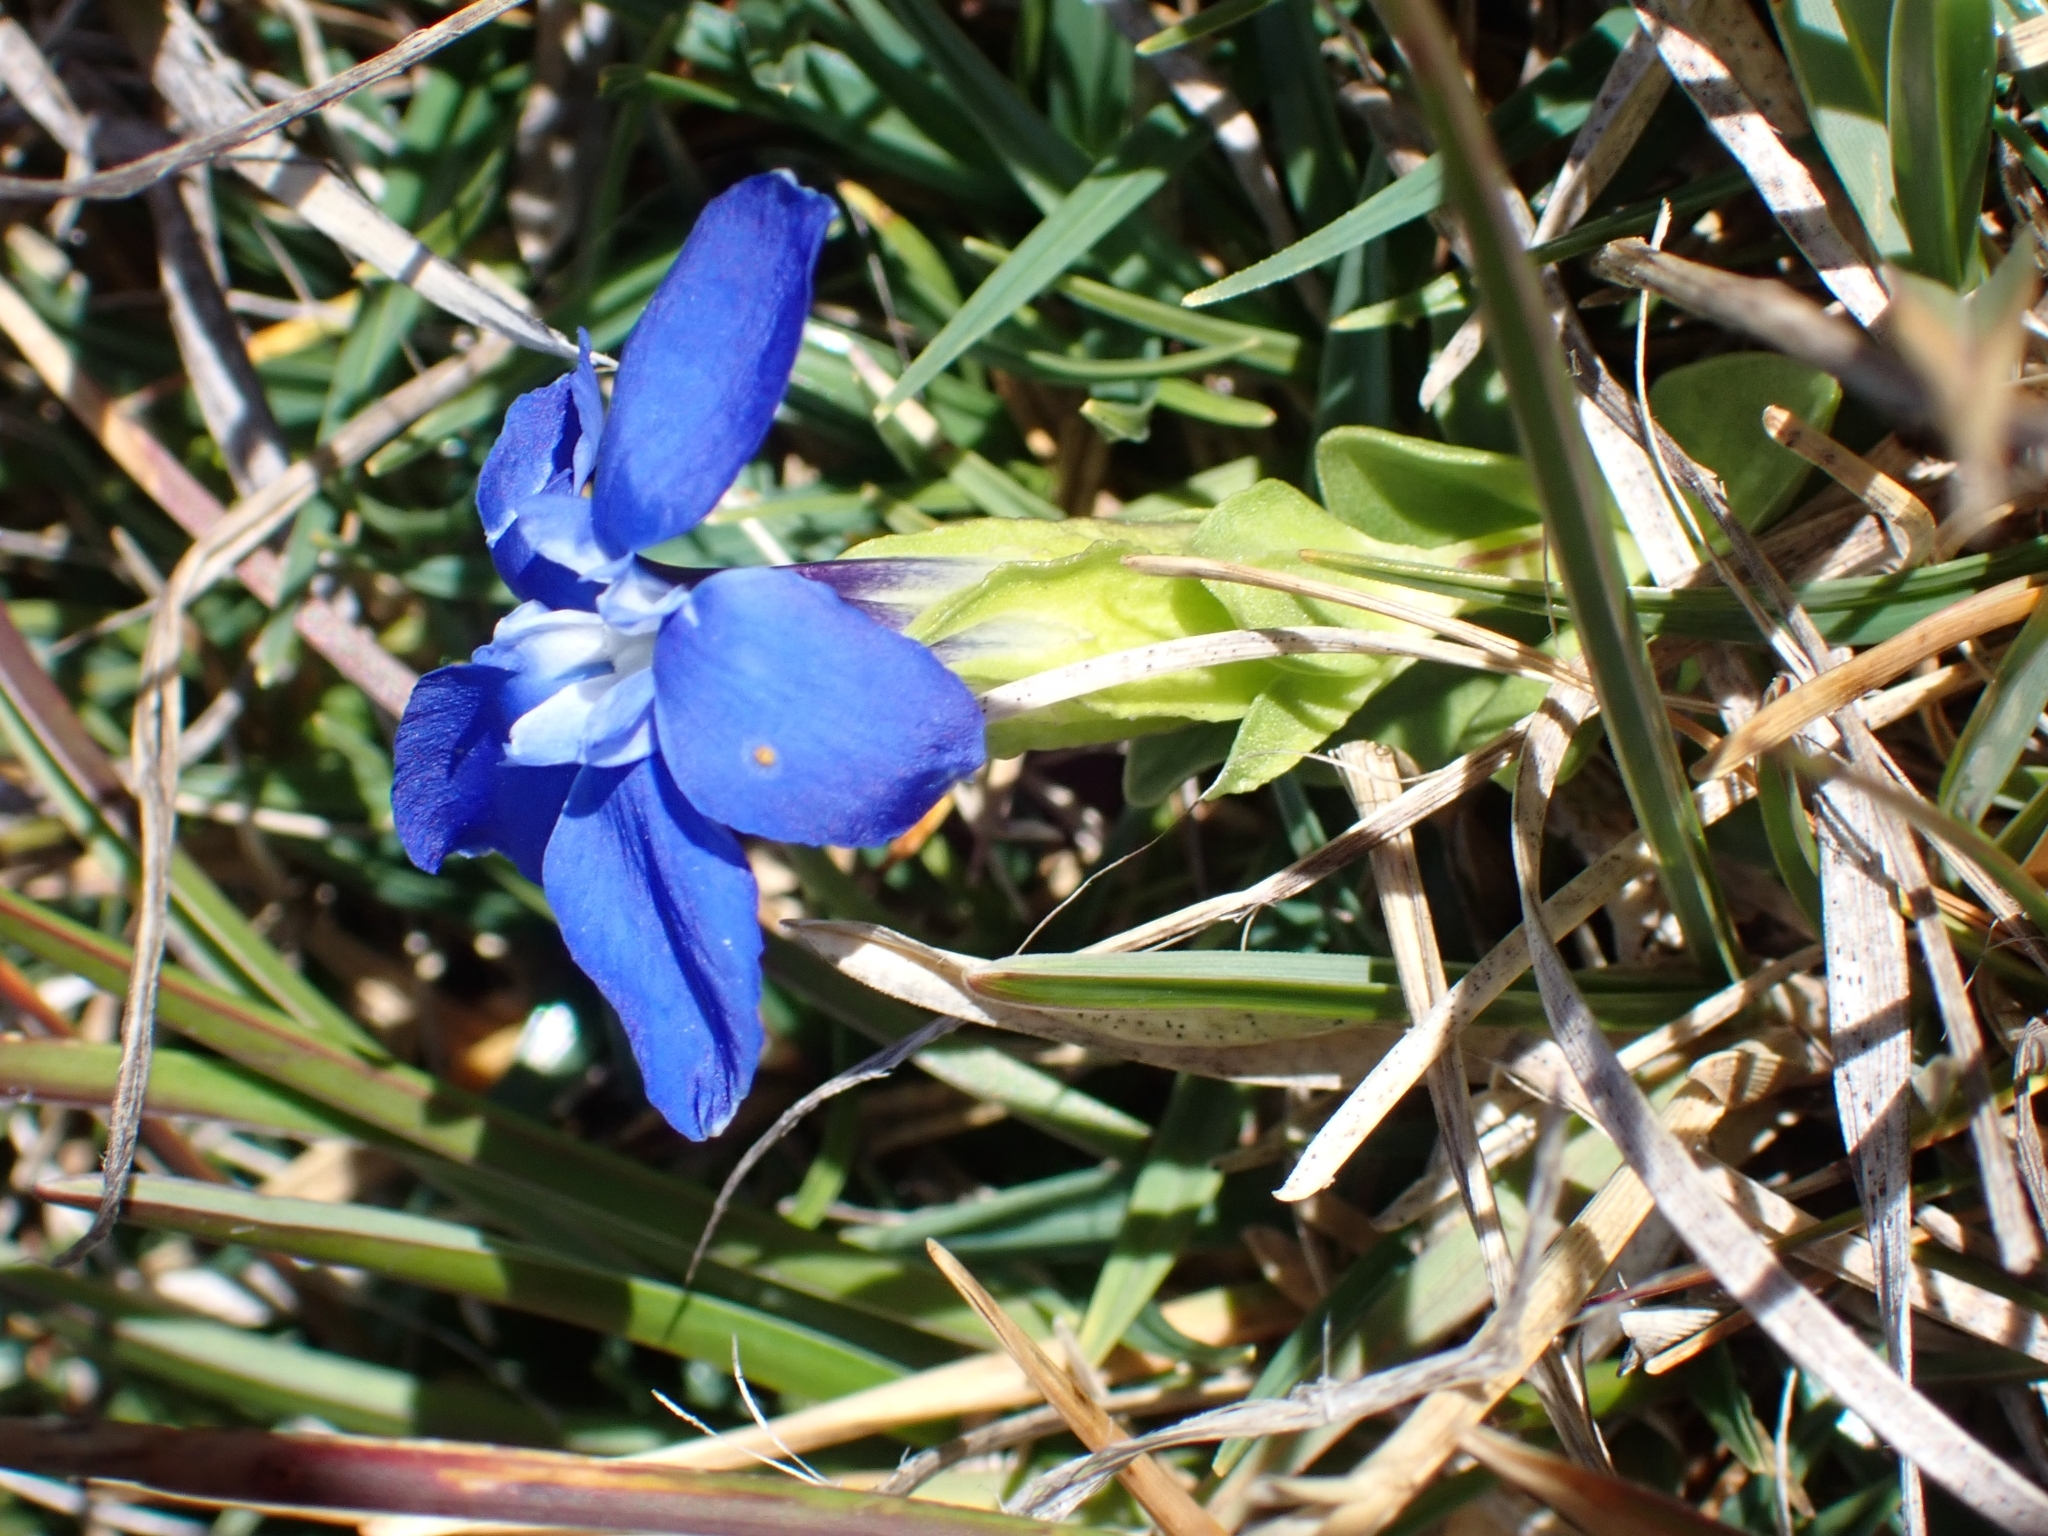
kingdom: Plantae
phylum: Tracheophyta
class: Magnoliopsida
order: Gentianales
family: Gentianaceae
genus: Gentiana
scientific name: Gentiana verna
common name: Spring gentian
